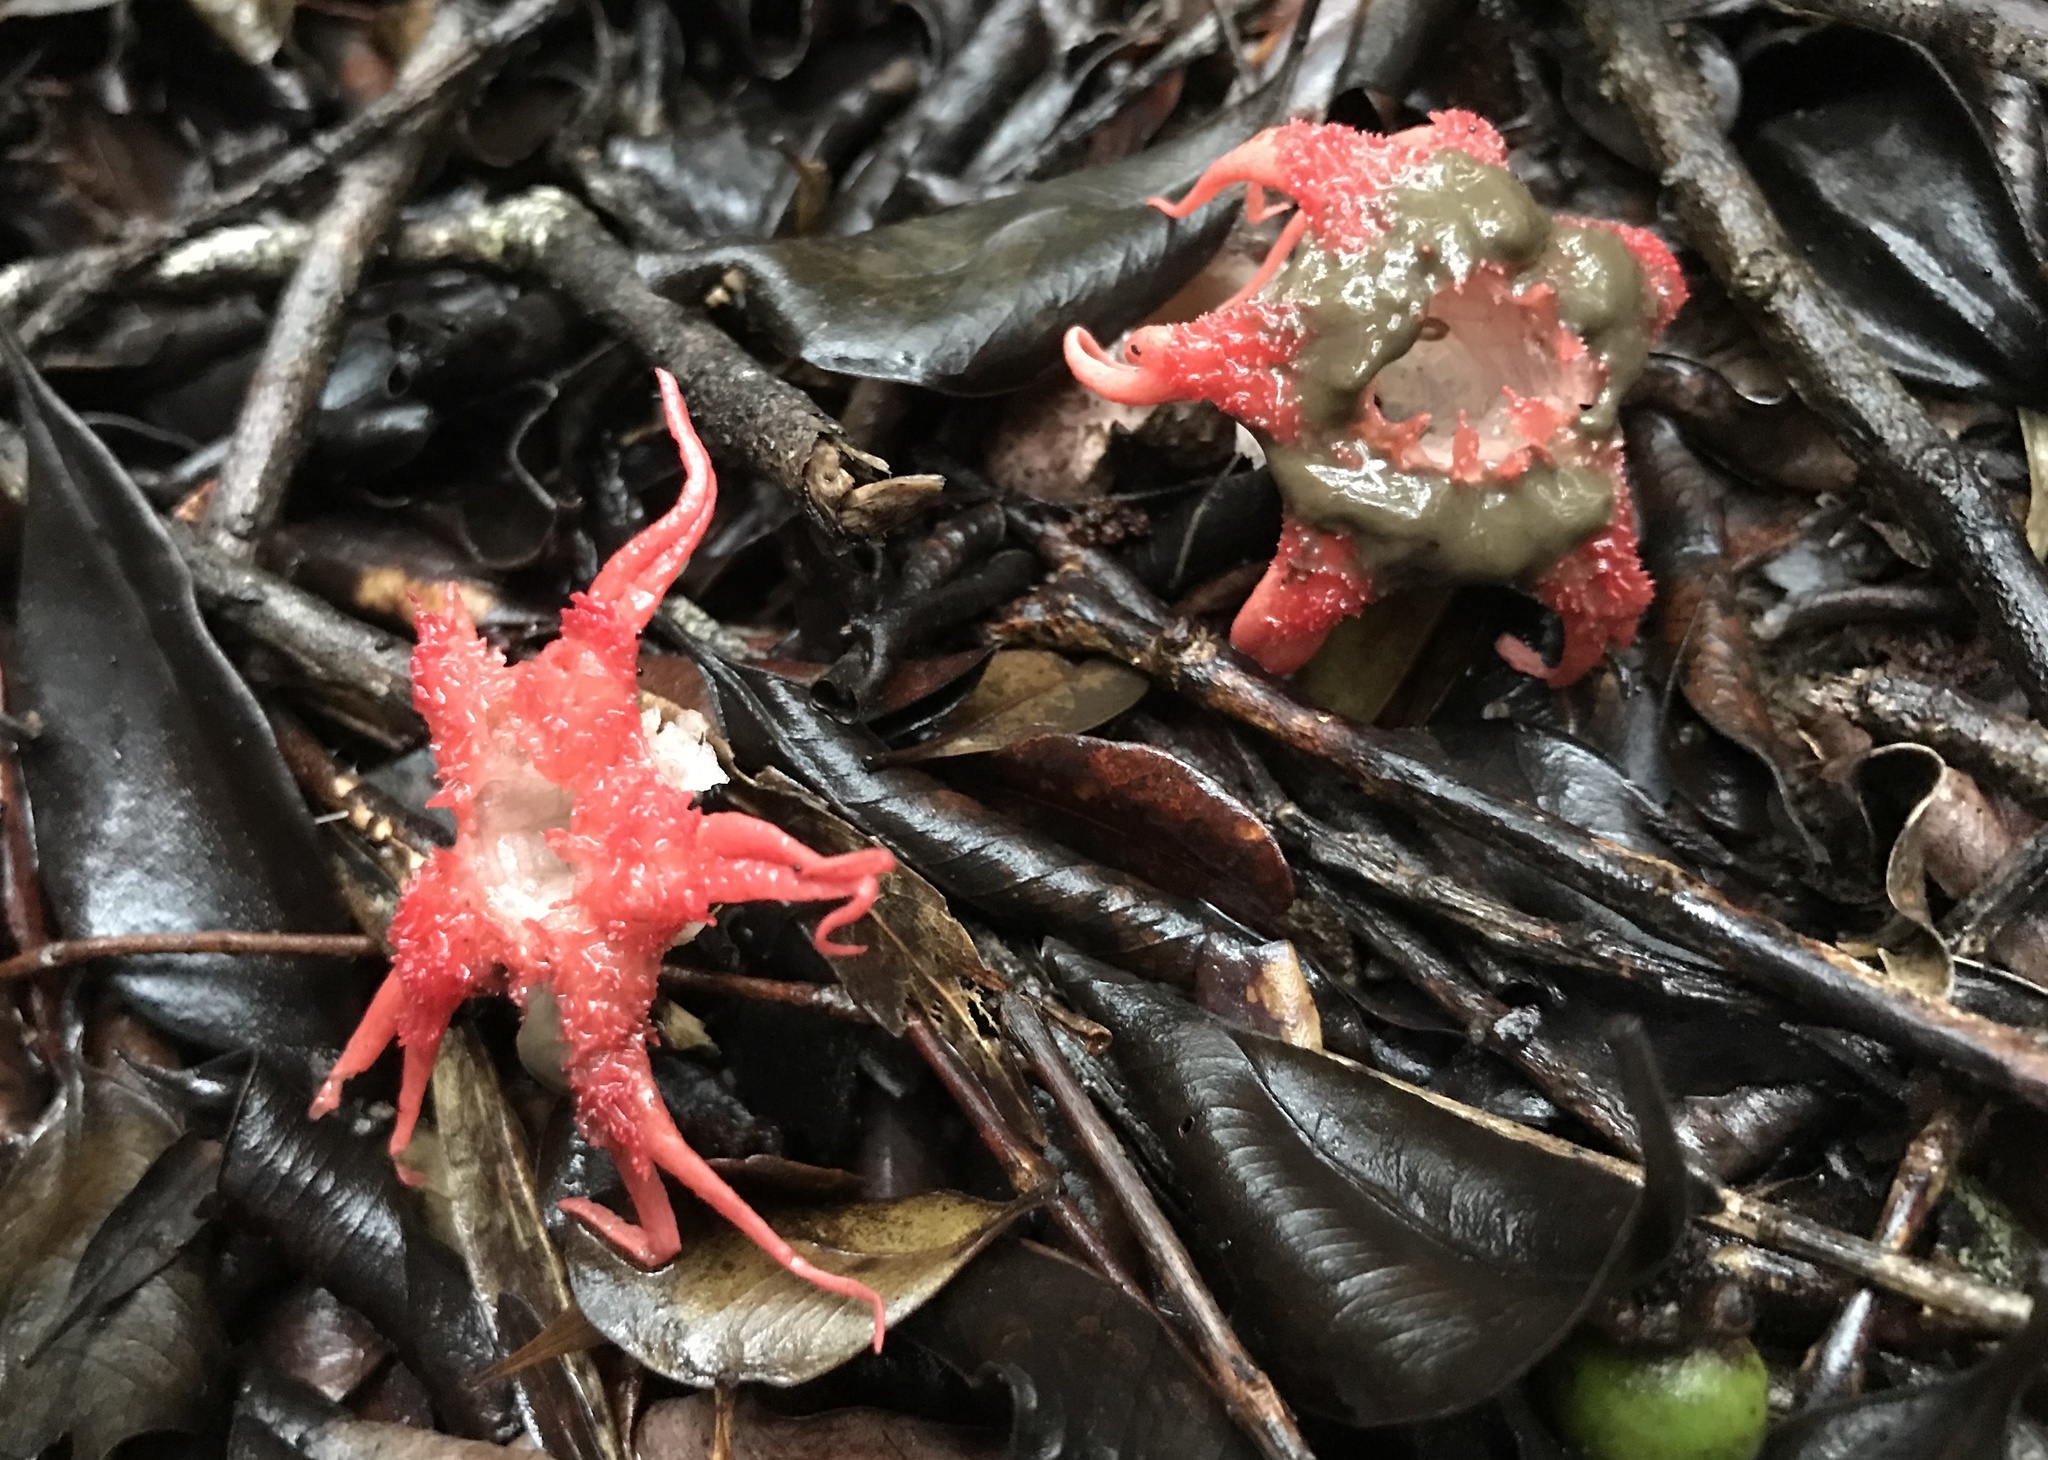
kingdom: Fungi
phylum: Basidiomycota
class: Agaricomycetes
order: Phallales
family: Phallaceae
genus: Aseroe
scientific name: Aseroe rubra
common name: Starfish fungus
